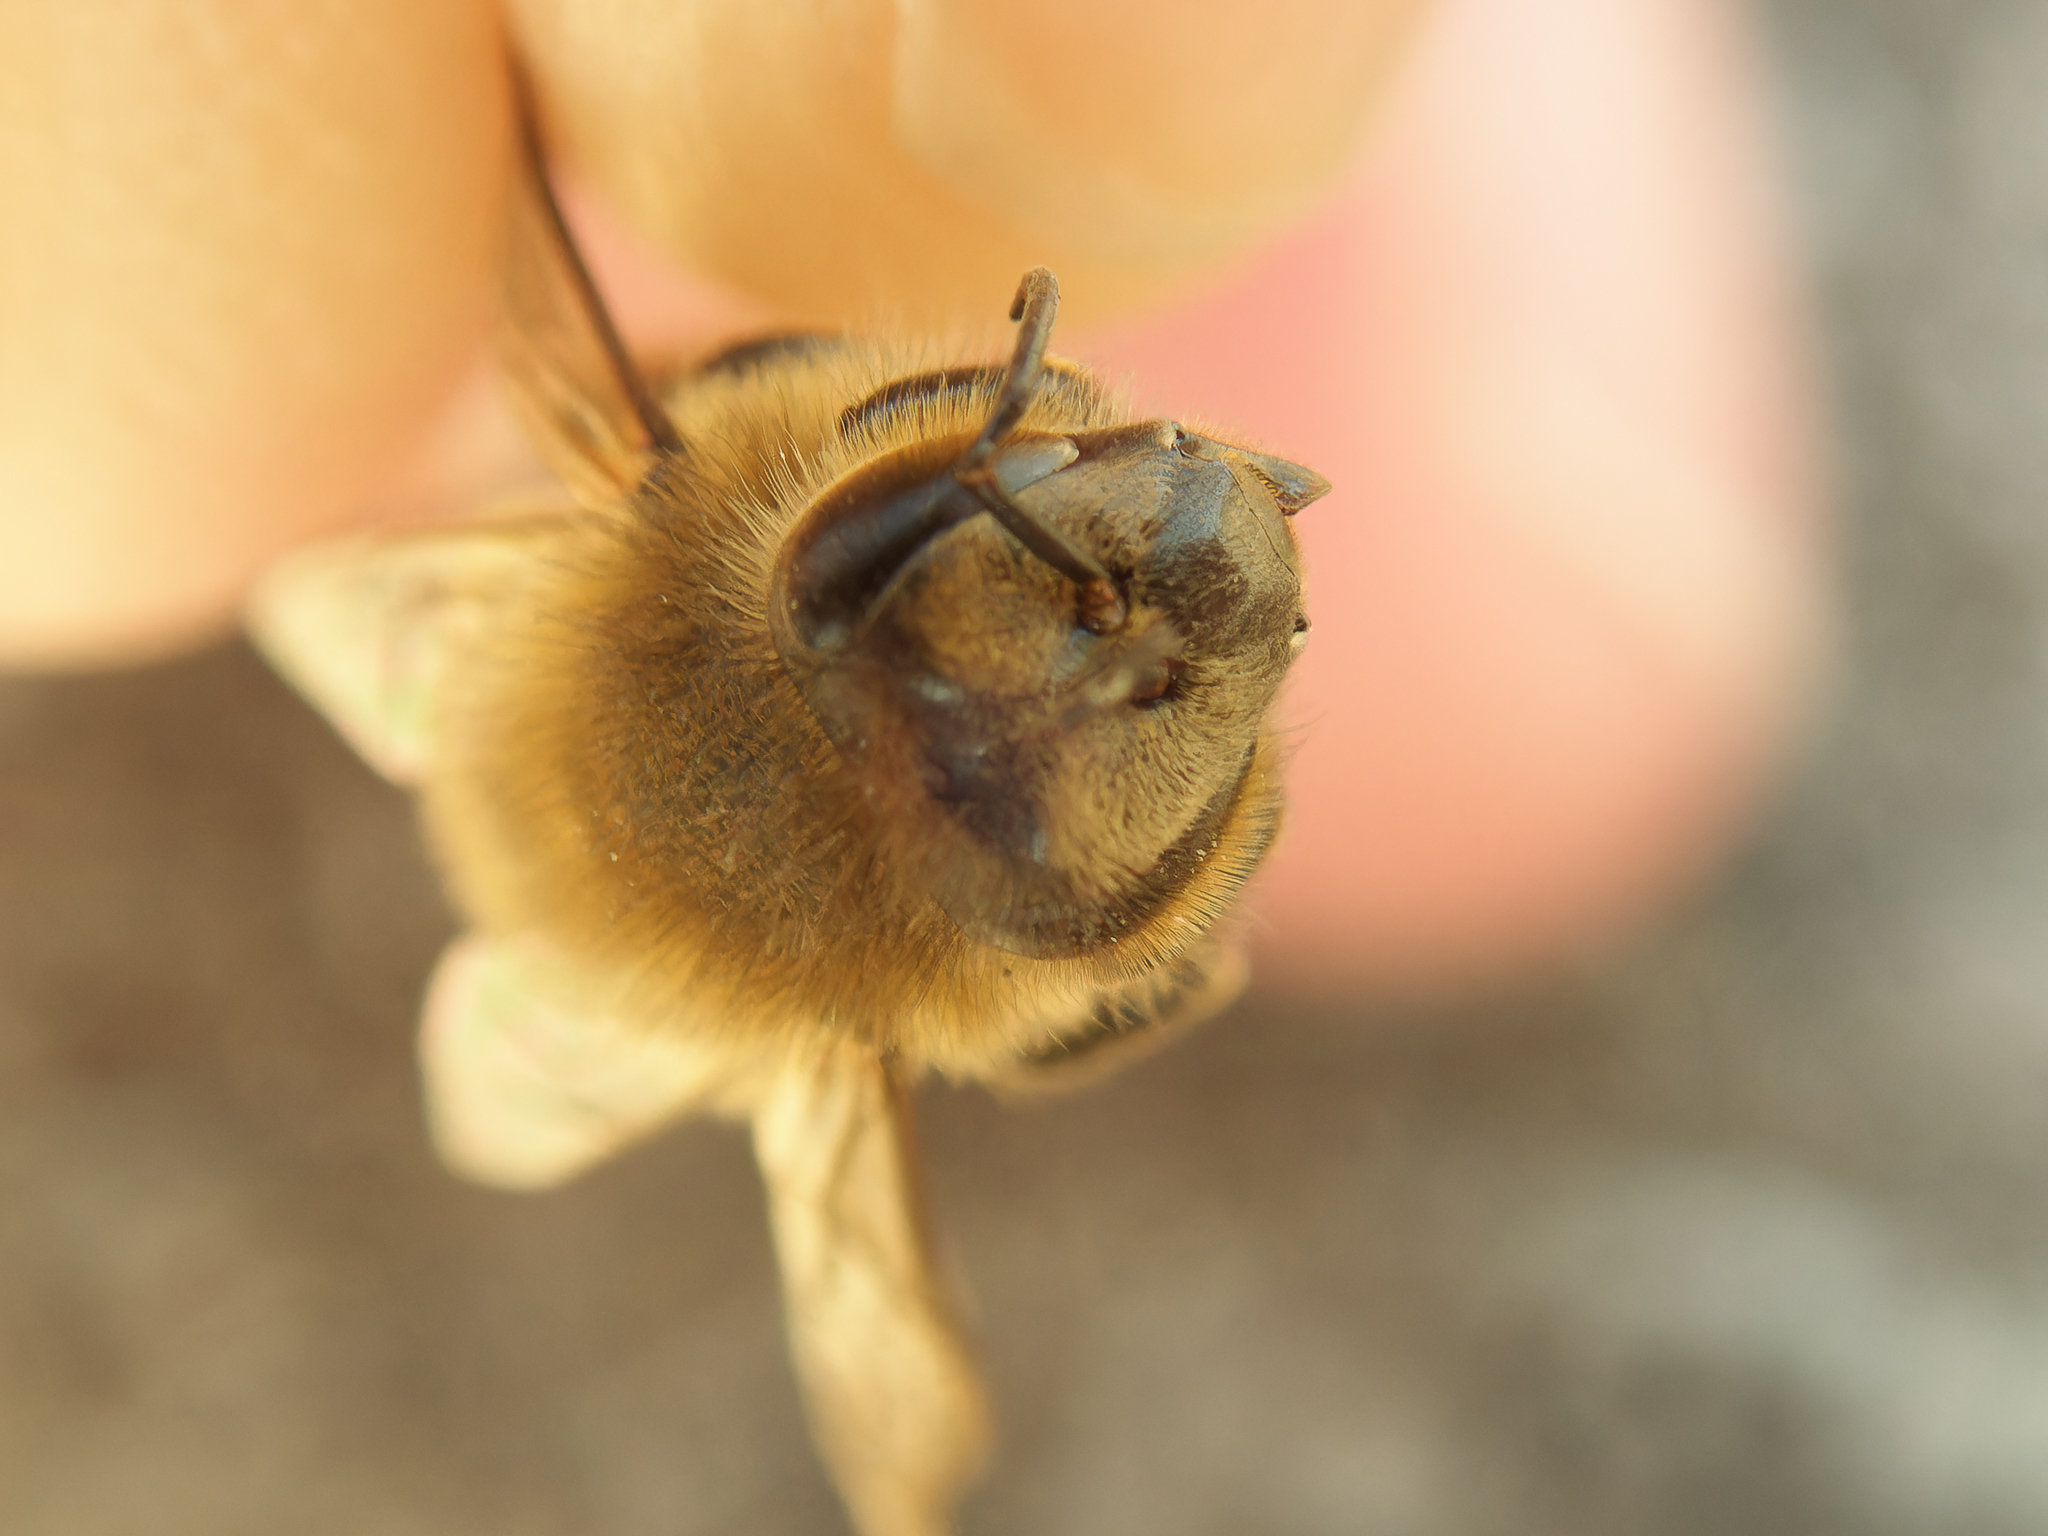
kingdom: Animalia
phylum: Arthropoda
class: Insecta
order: Hymenoptera
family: Apidae
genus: Apis
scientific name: Apis mellifera
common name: Honey bee
